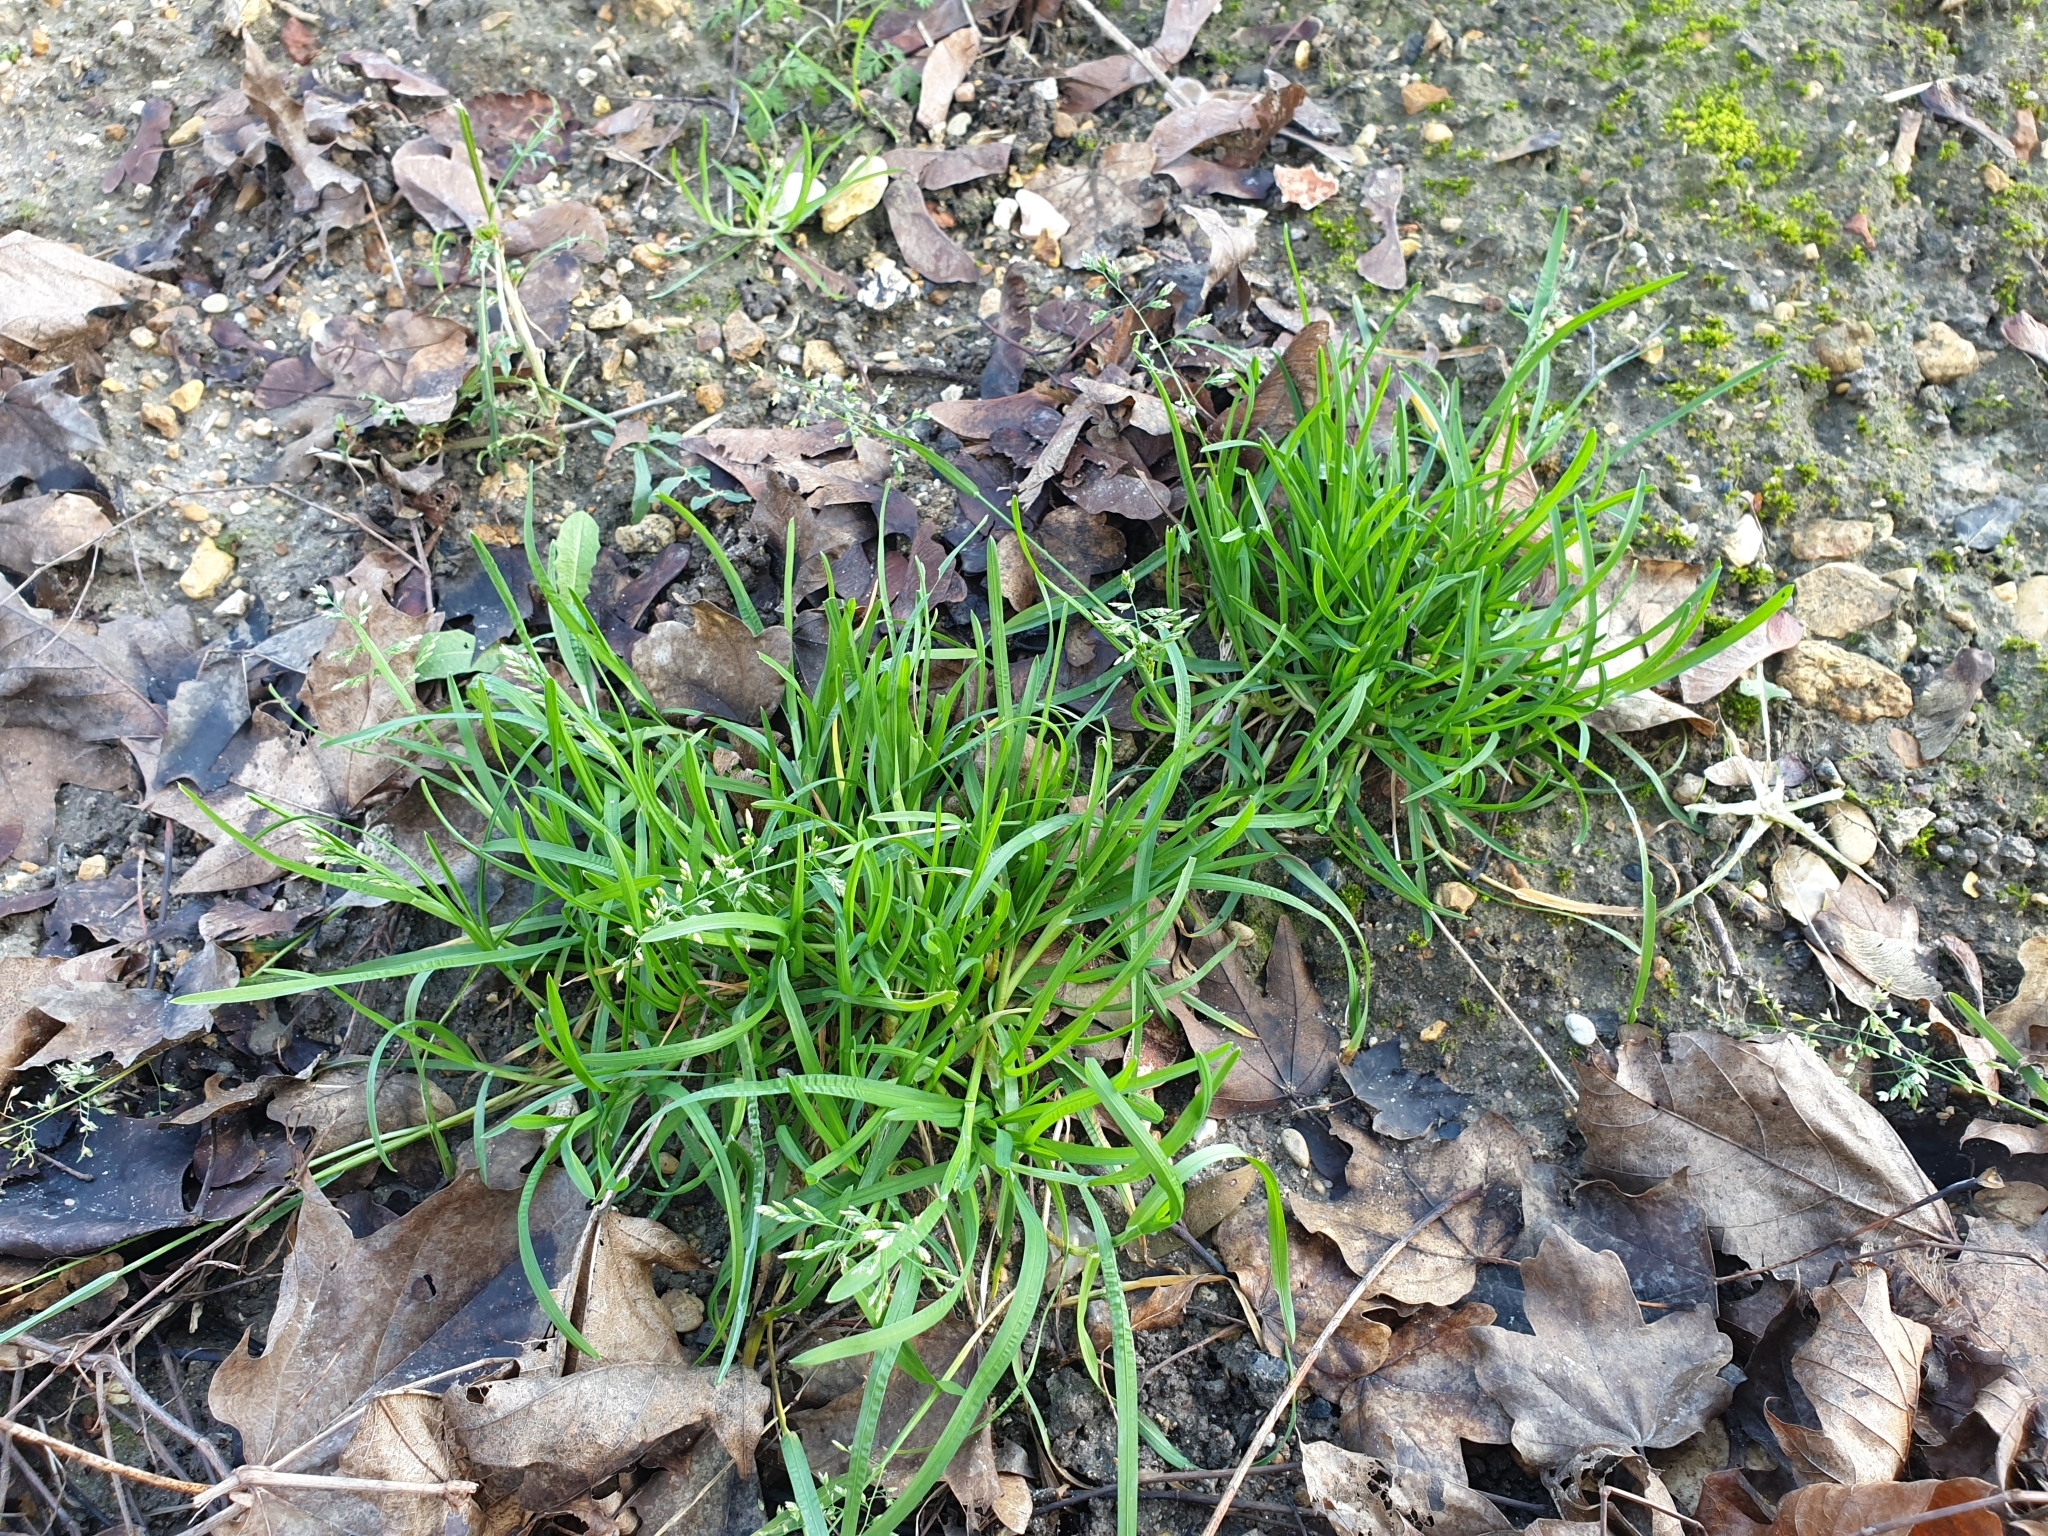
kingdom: Plantae
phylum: Tracheophyta
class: Liliopsida
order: Poales
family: Poaceae
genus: Poa
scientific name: Poa annua
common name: Annual bluegrass
